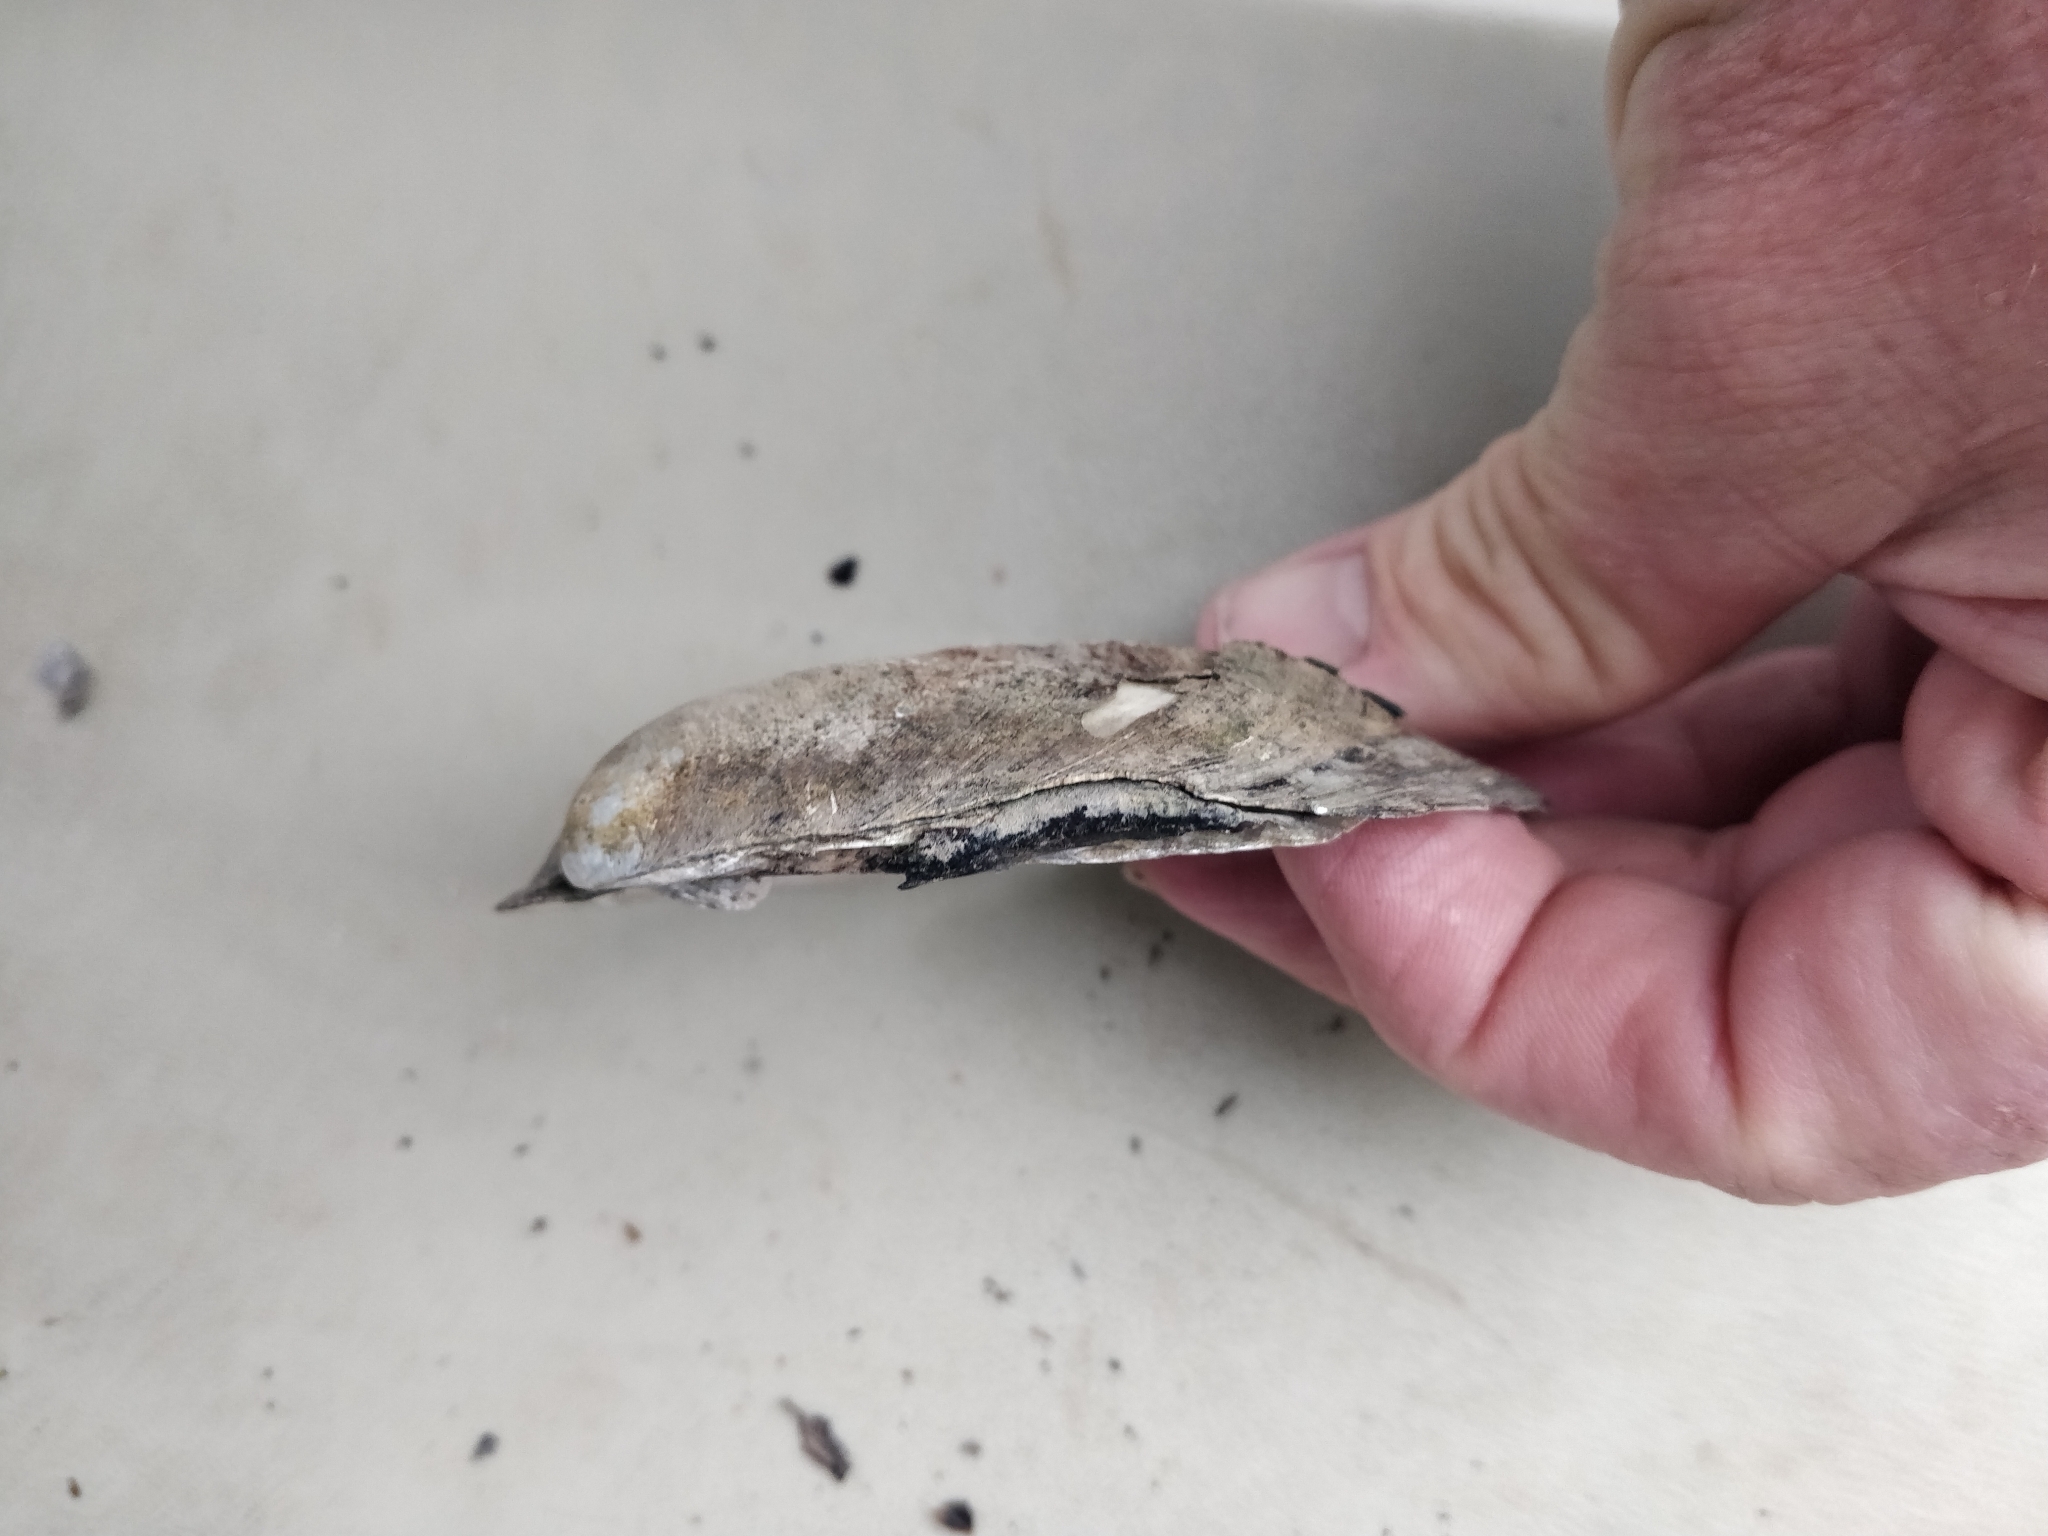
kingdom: Animalia
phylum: Mollusca
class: Bivalvia
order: Unionida
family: Unionidae
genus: Amblema
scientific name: Amblema plicata
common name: Threeridge
